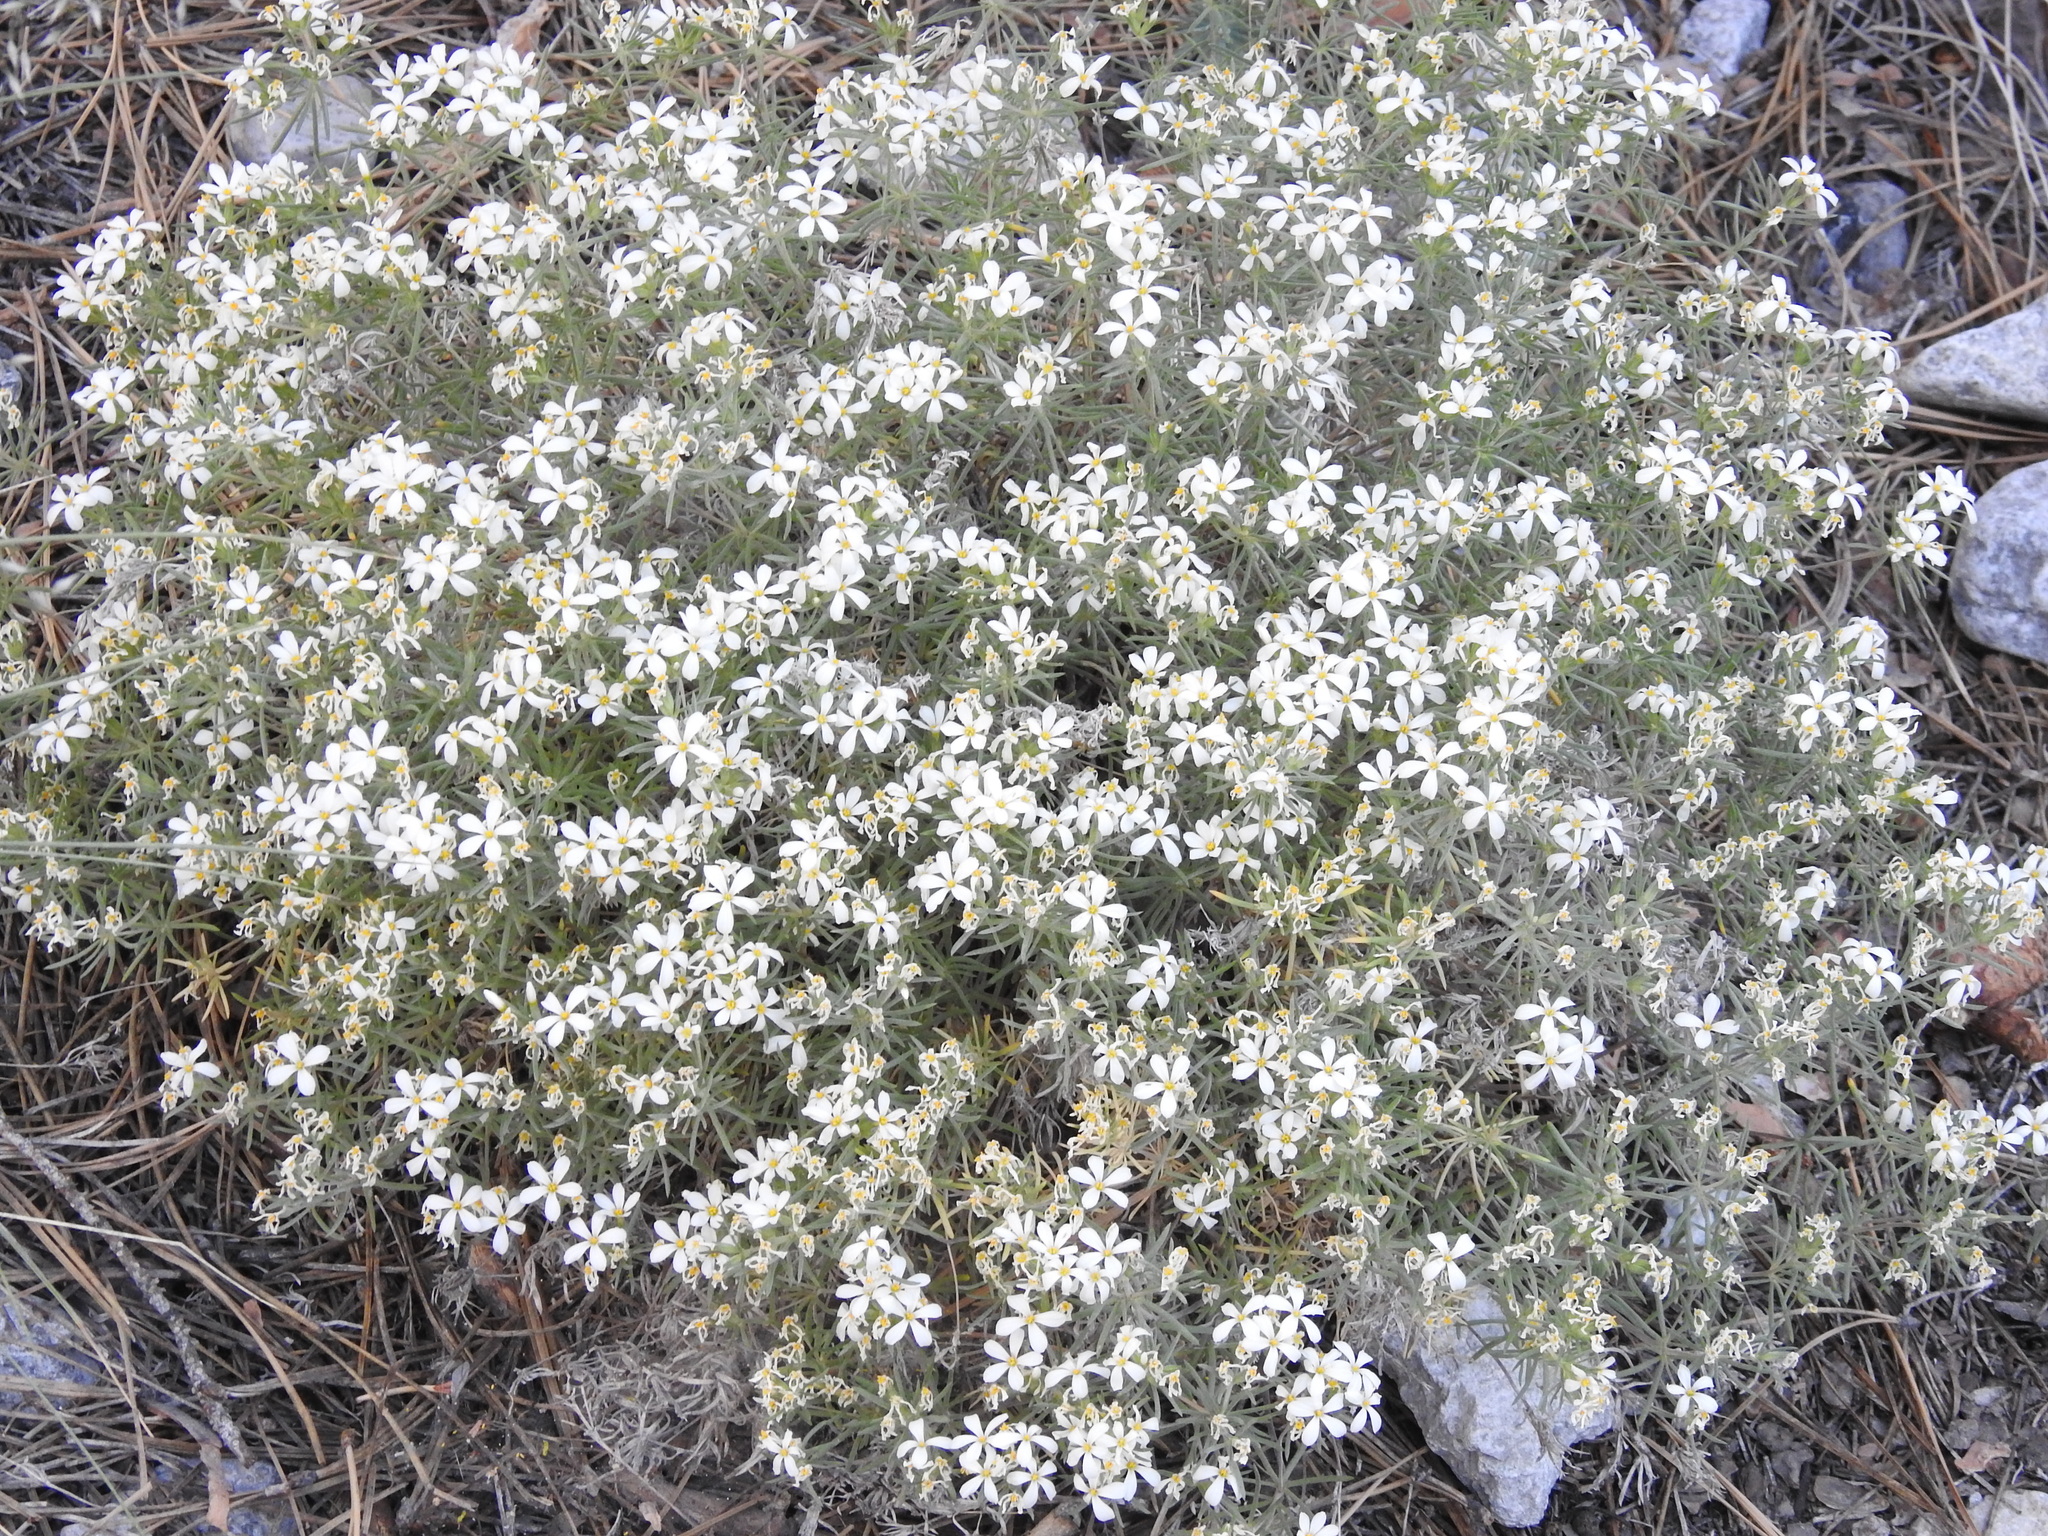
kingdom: Plantae
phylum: Tracheophyta
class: Magnoliopsida
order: Ericales
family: Polemoniaceae
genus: Leptosiphon
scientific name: Leptosiphon nuttallii
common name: Nuttall's linanthus
